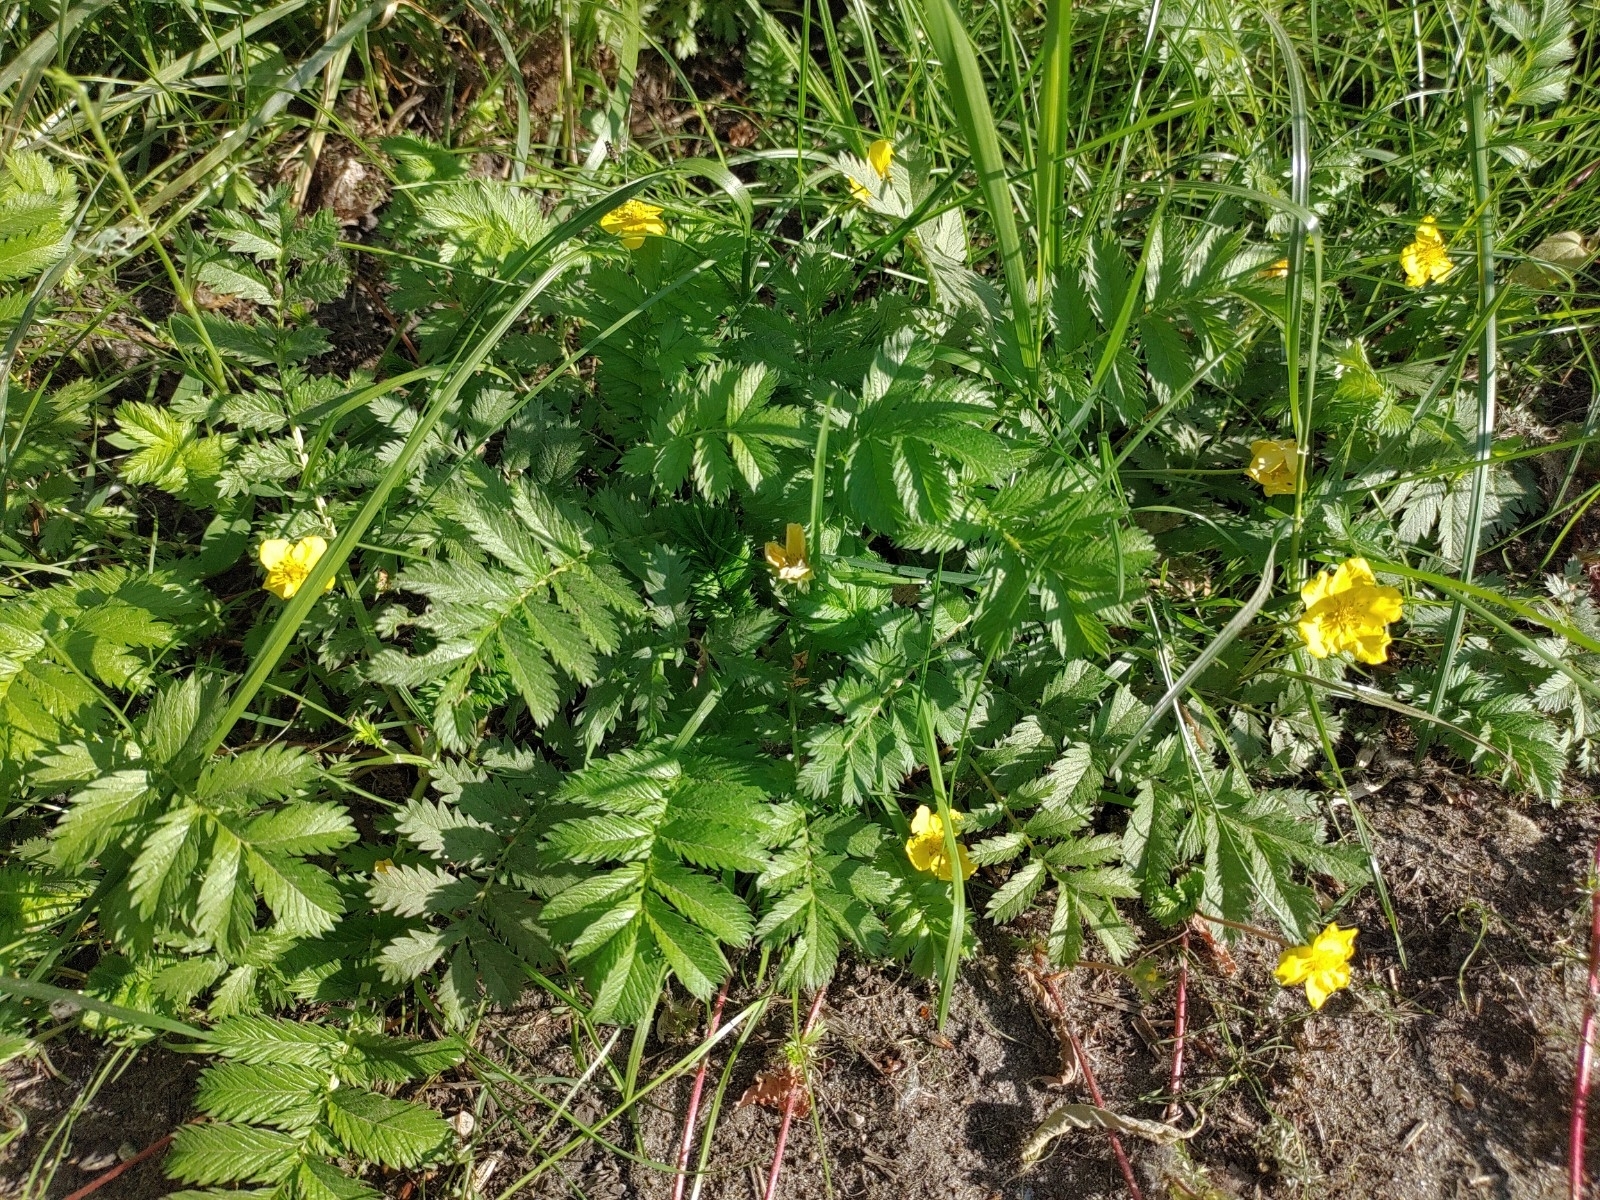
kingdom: Plantae
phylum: Tracheophyta
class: Magnoliopsida
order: Rosales
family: Rosaceae
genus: Argentina
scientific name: Argentina anserina
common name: Common silverweed
